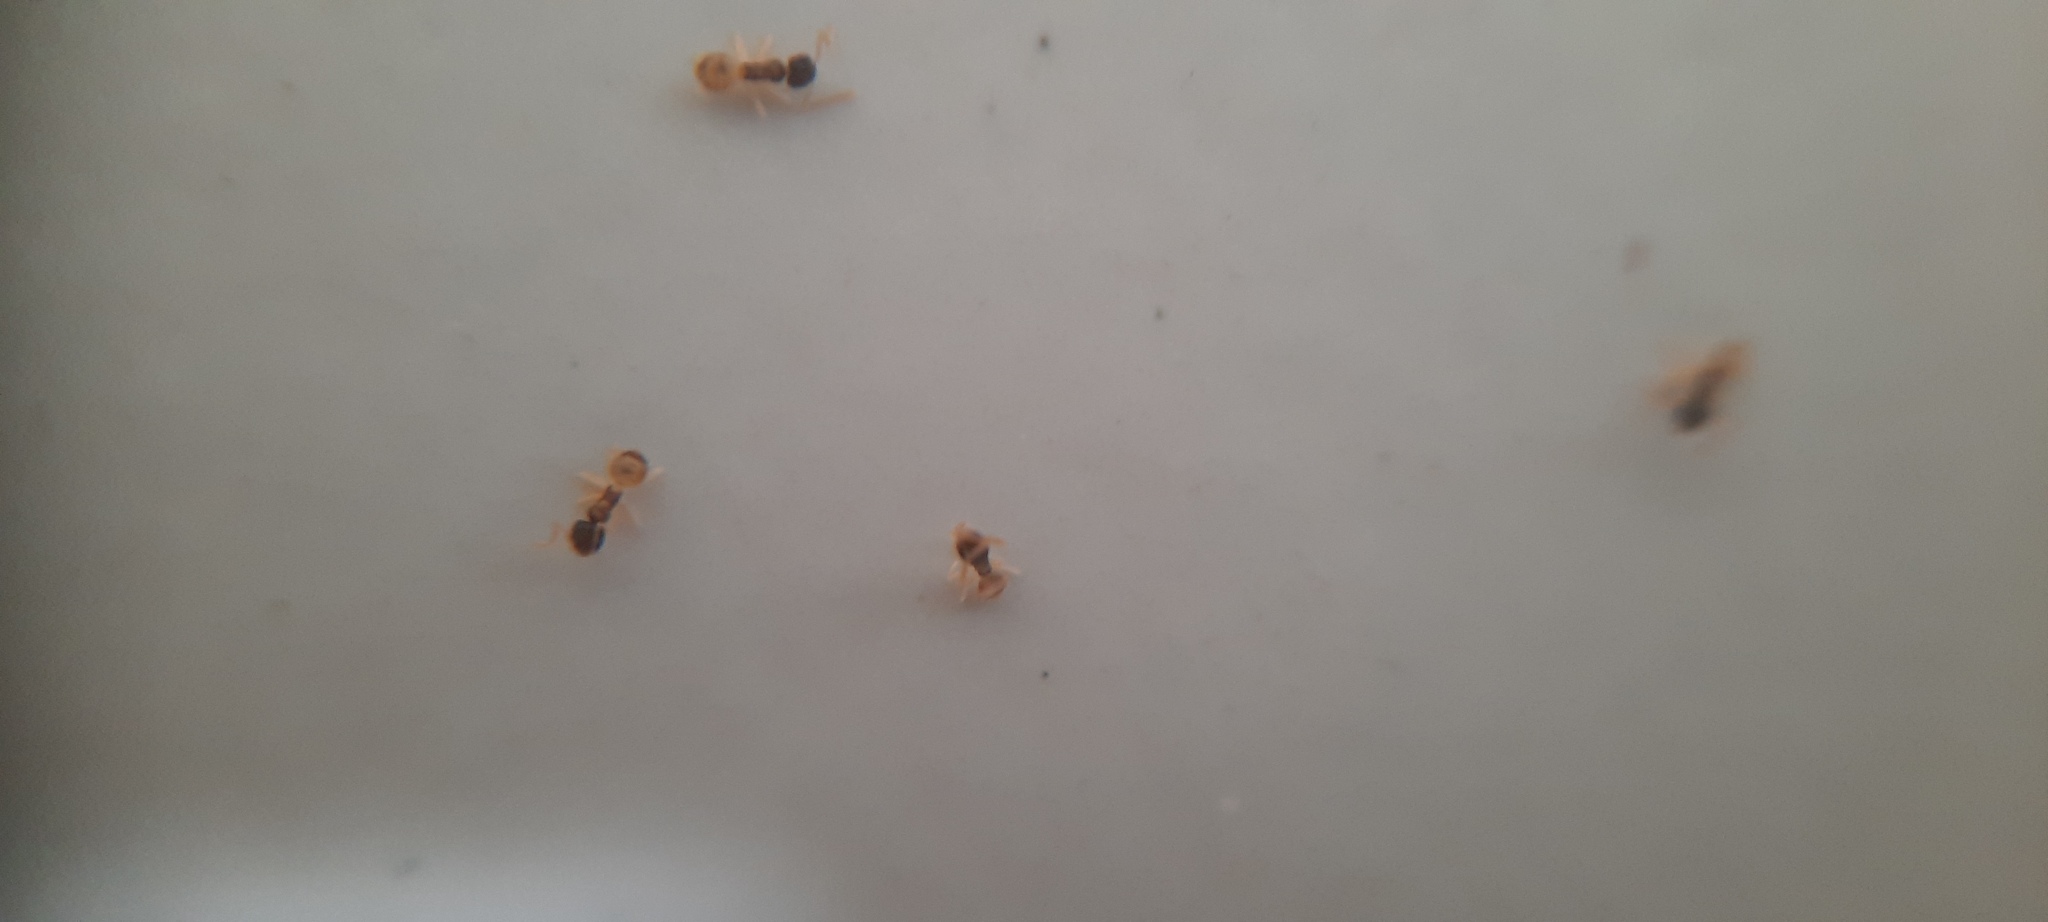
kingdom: Animalia
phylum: Arthropoda
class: Insecta
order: Hymenoptera
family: Formicidae
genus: Tapinoma
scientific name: Tapinoma melanocephalum
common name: Ghost ant
